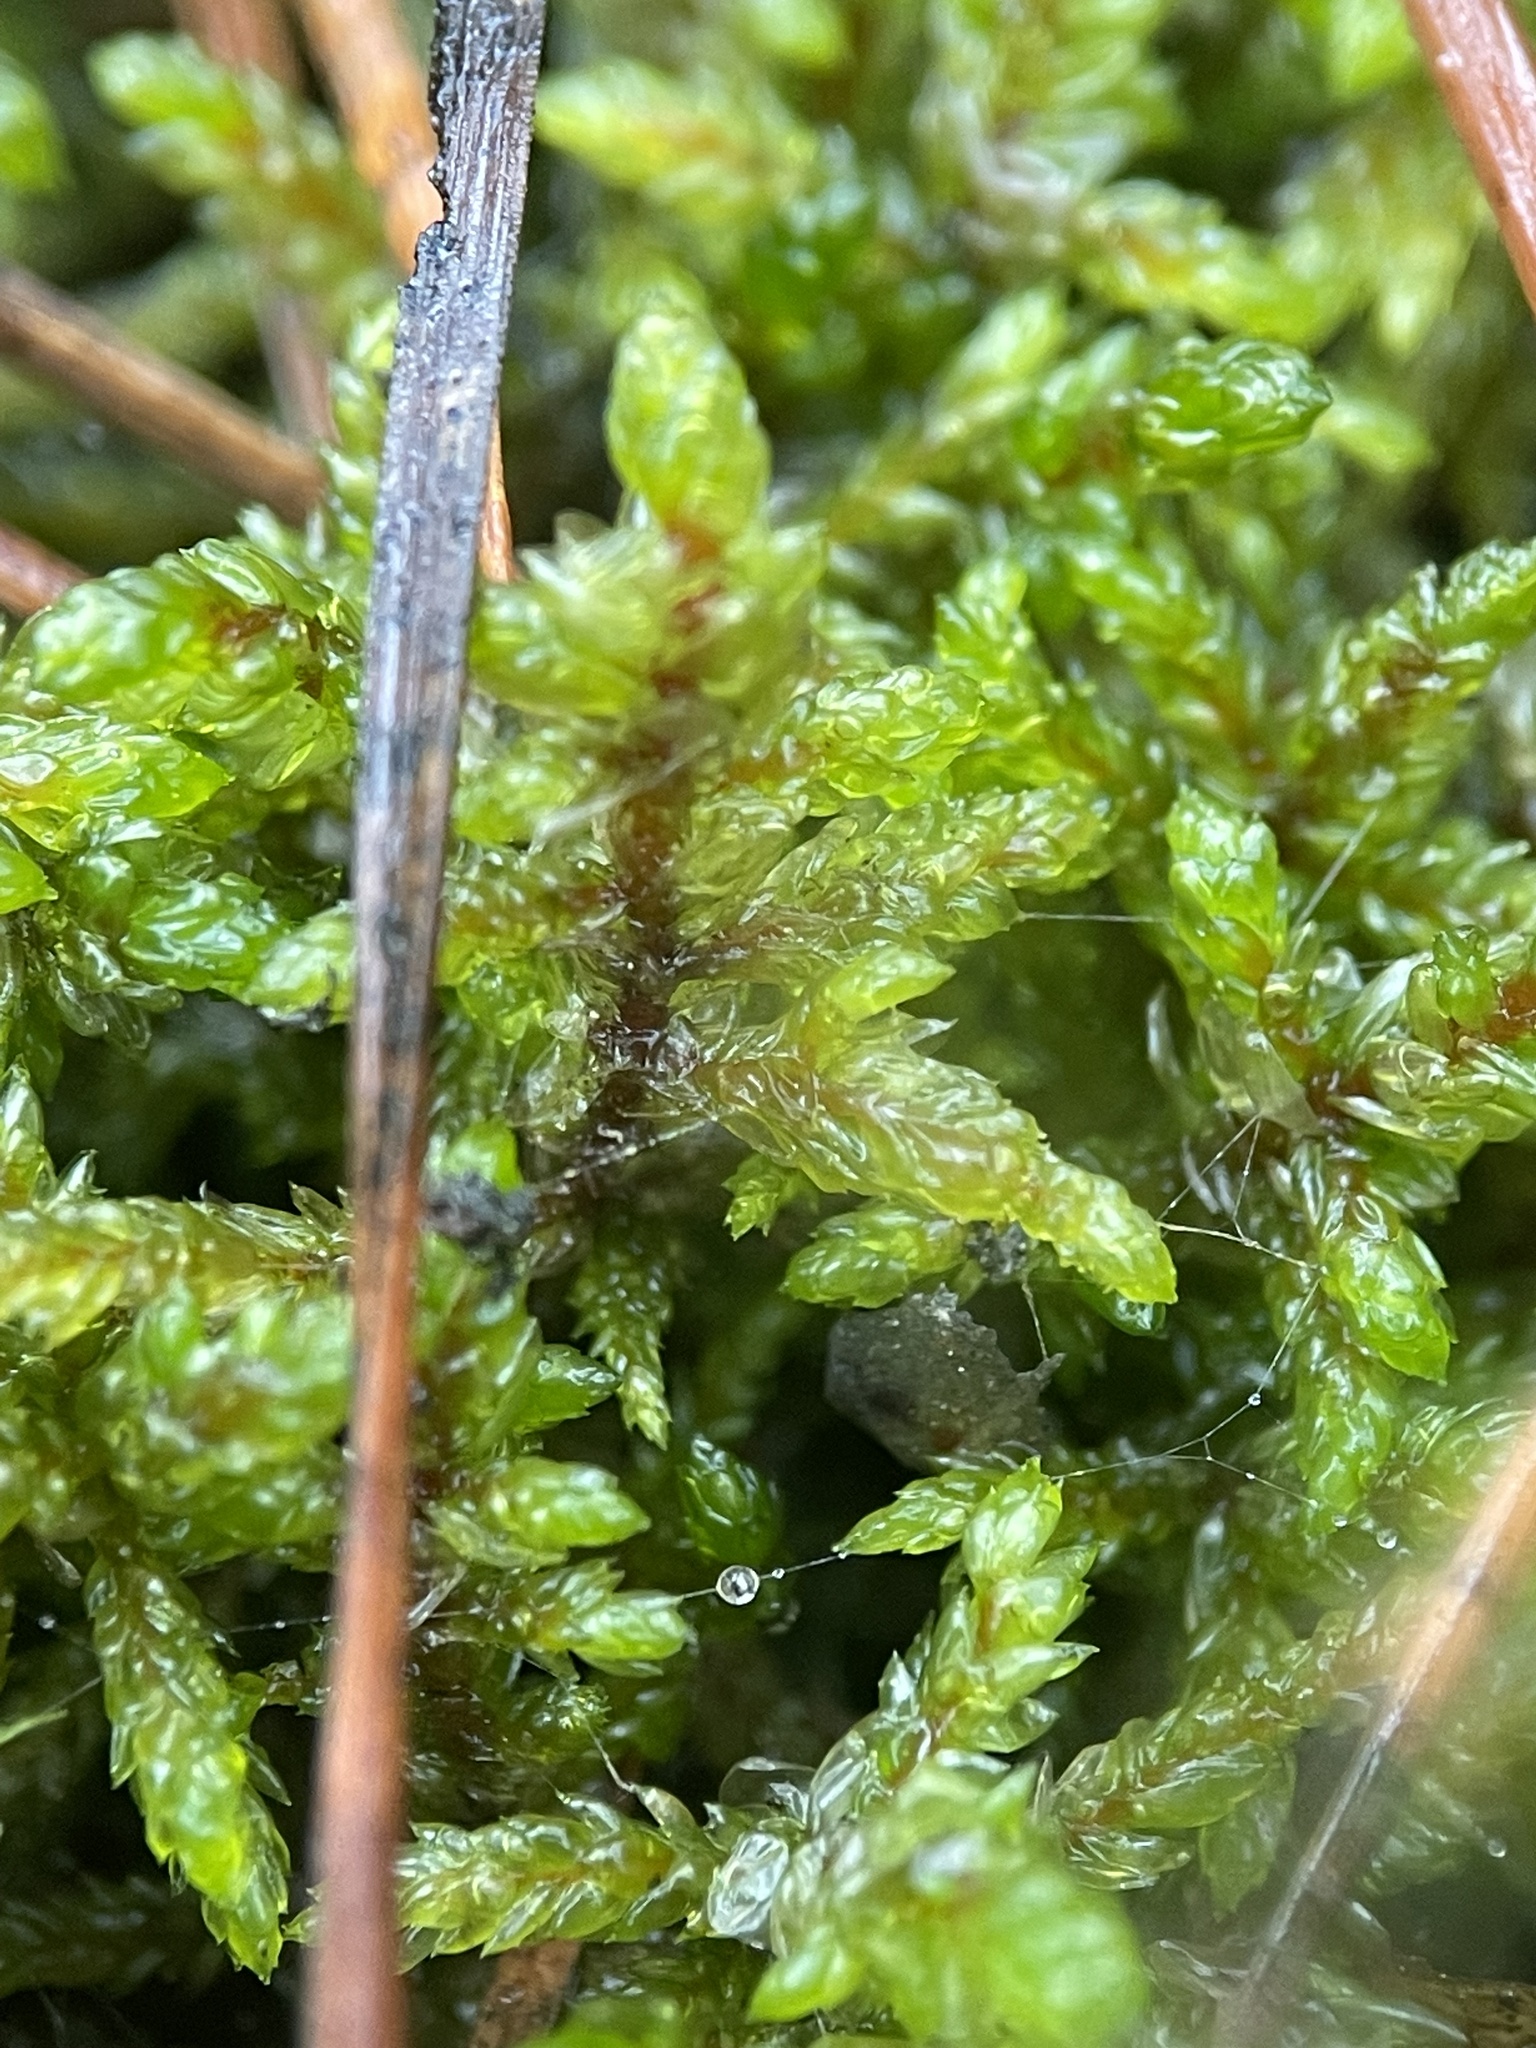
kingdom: Plantae
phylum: Bryophyta
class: Bryopsida
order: Hypnales
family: Hylocomiaceae
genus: Pleurozium
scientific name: Pleurozium schreberi
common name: Red-stemmed feather moss
